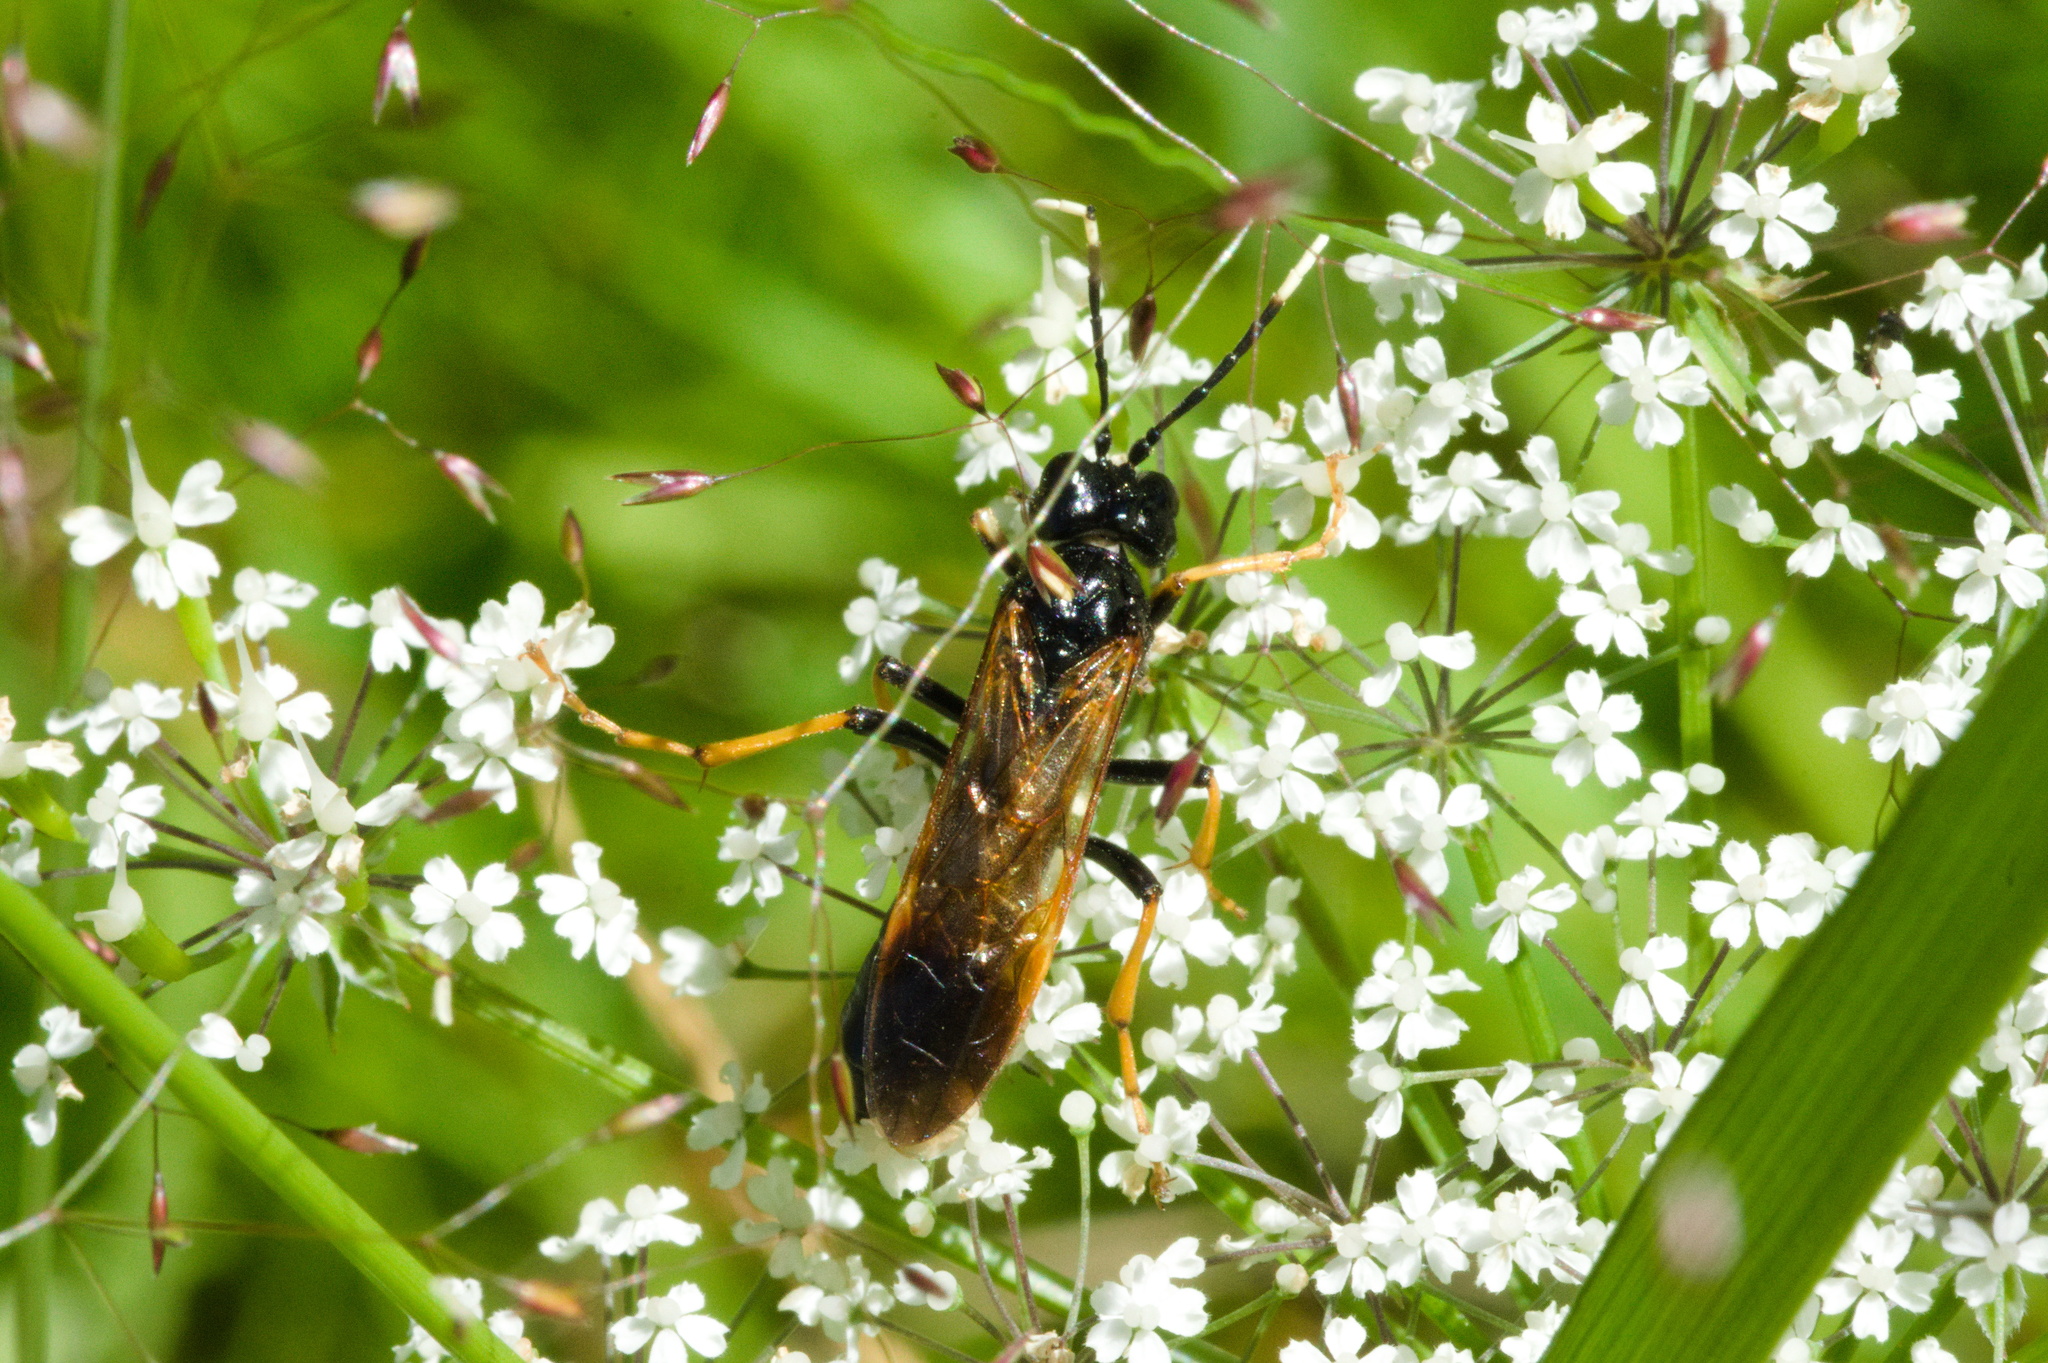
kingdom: Animalia
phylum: Arthropoda
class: Insecta
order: Hymenoptera
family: Tenthredinidae
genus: Tenthredo
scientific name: Tenthredo crassa
